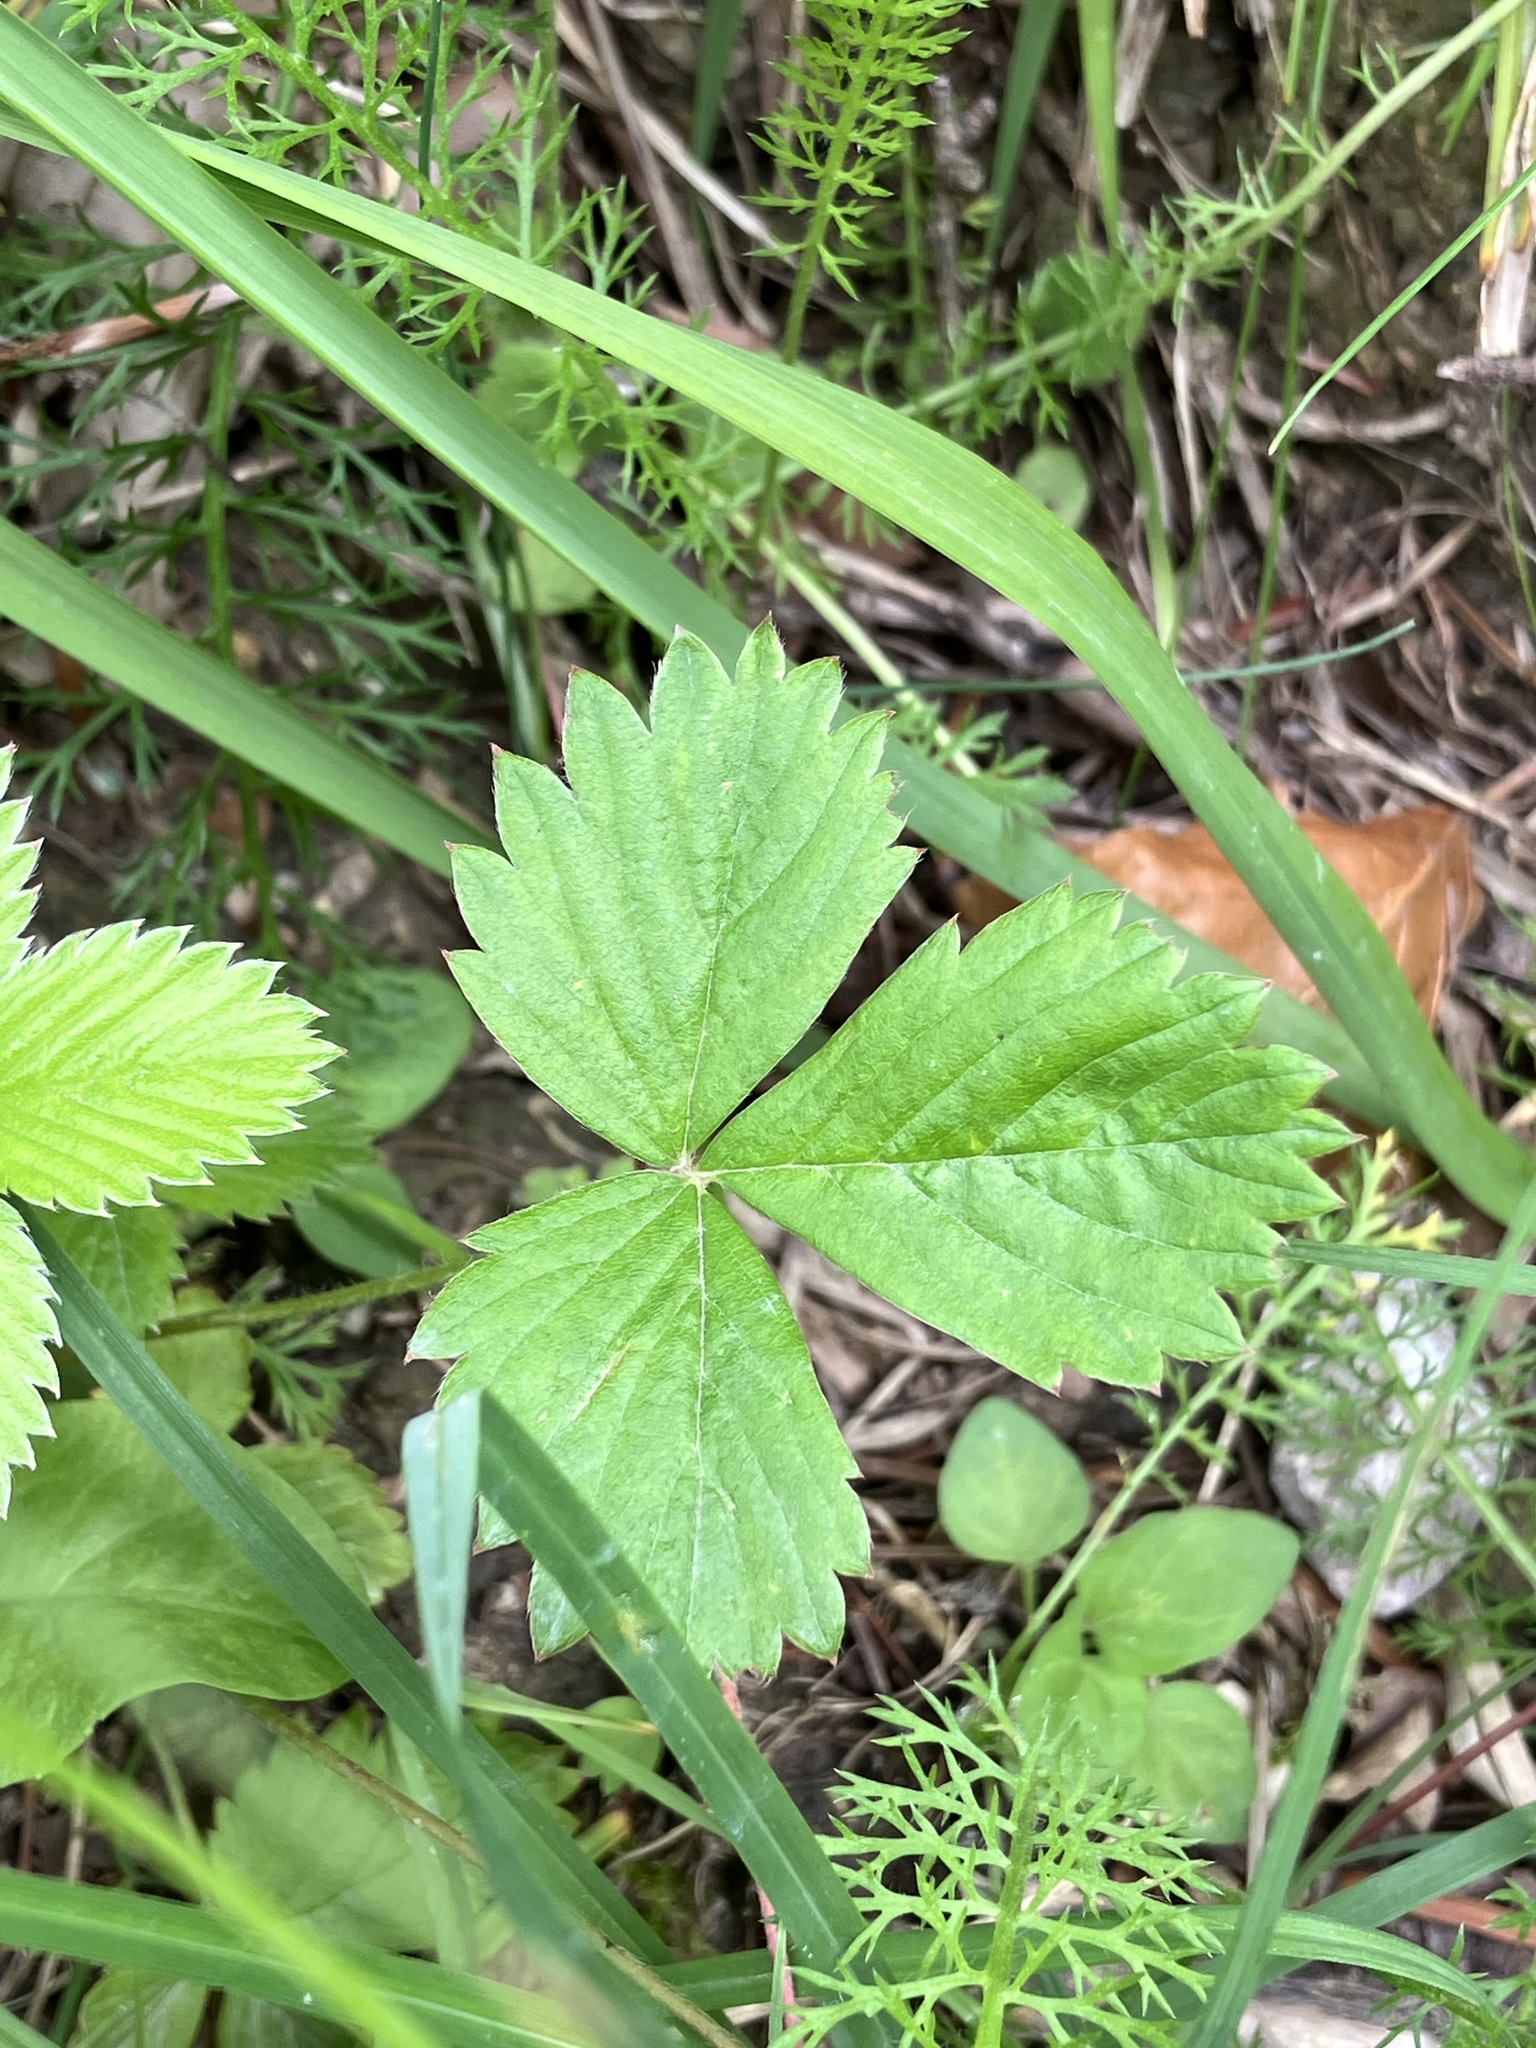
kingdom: Plantae
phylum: Tracheophyta
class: Magnoliopsida
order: Rosales
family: Rosaceae
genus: Fragaria
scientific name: Fragaria vesca
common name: Wild strawberry
